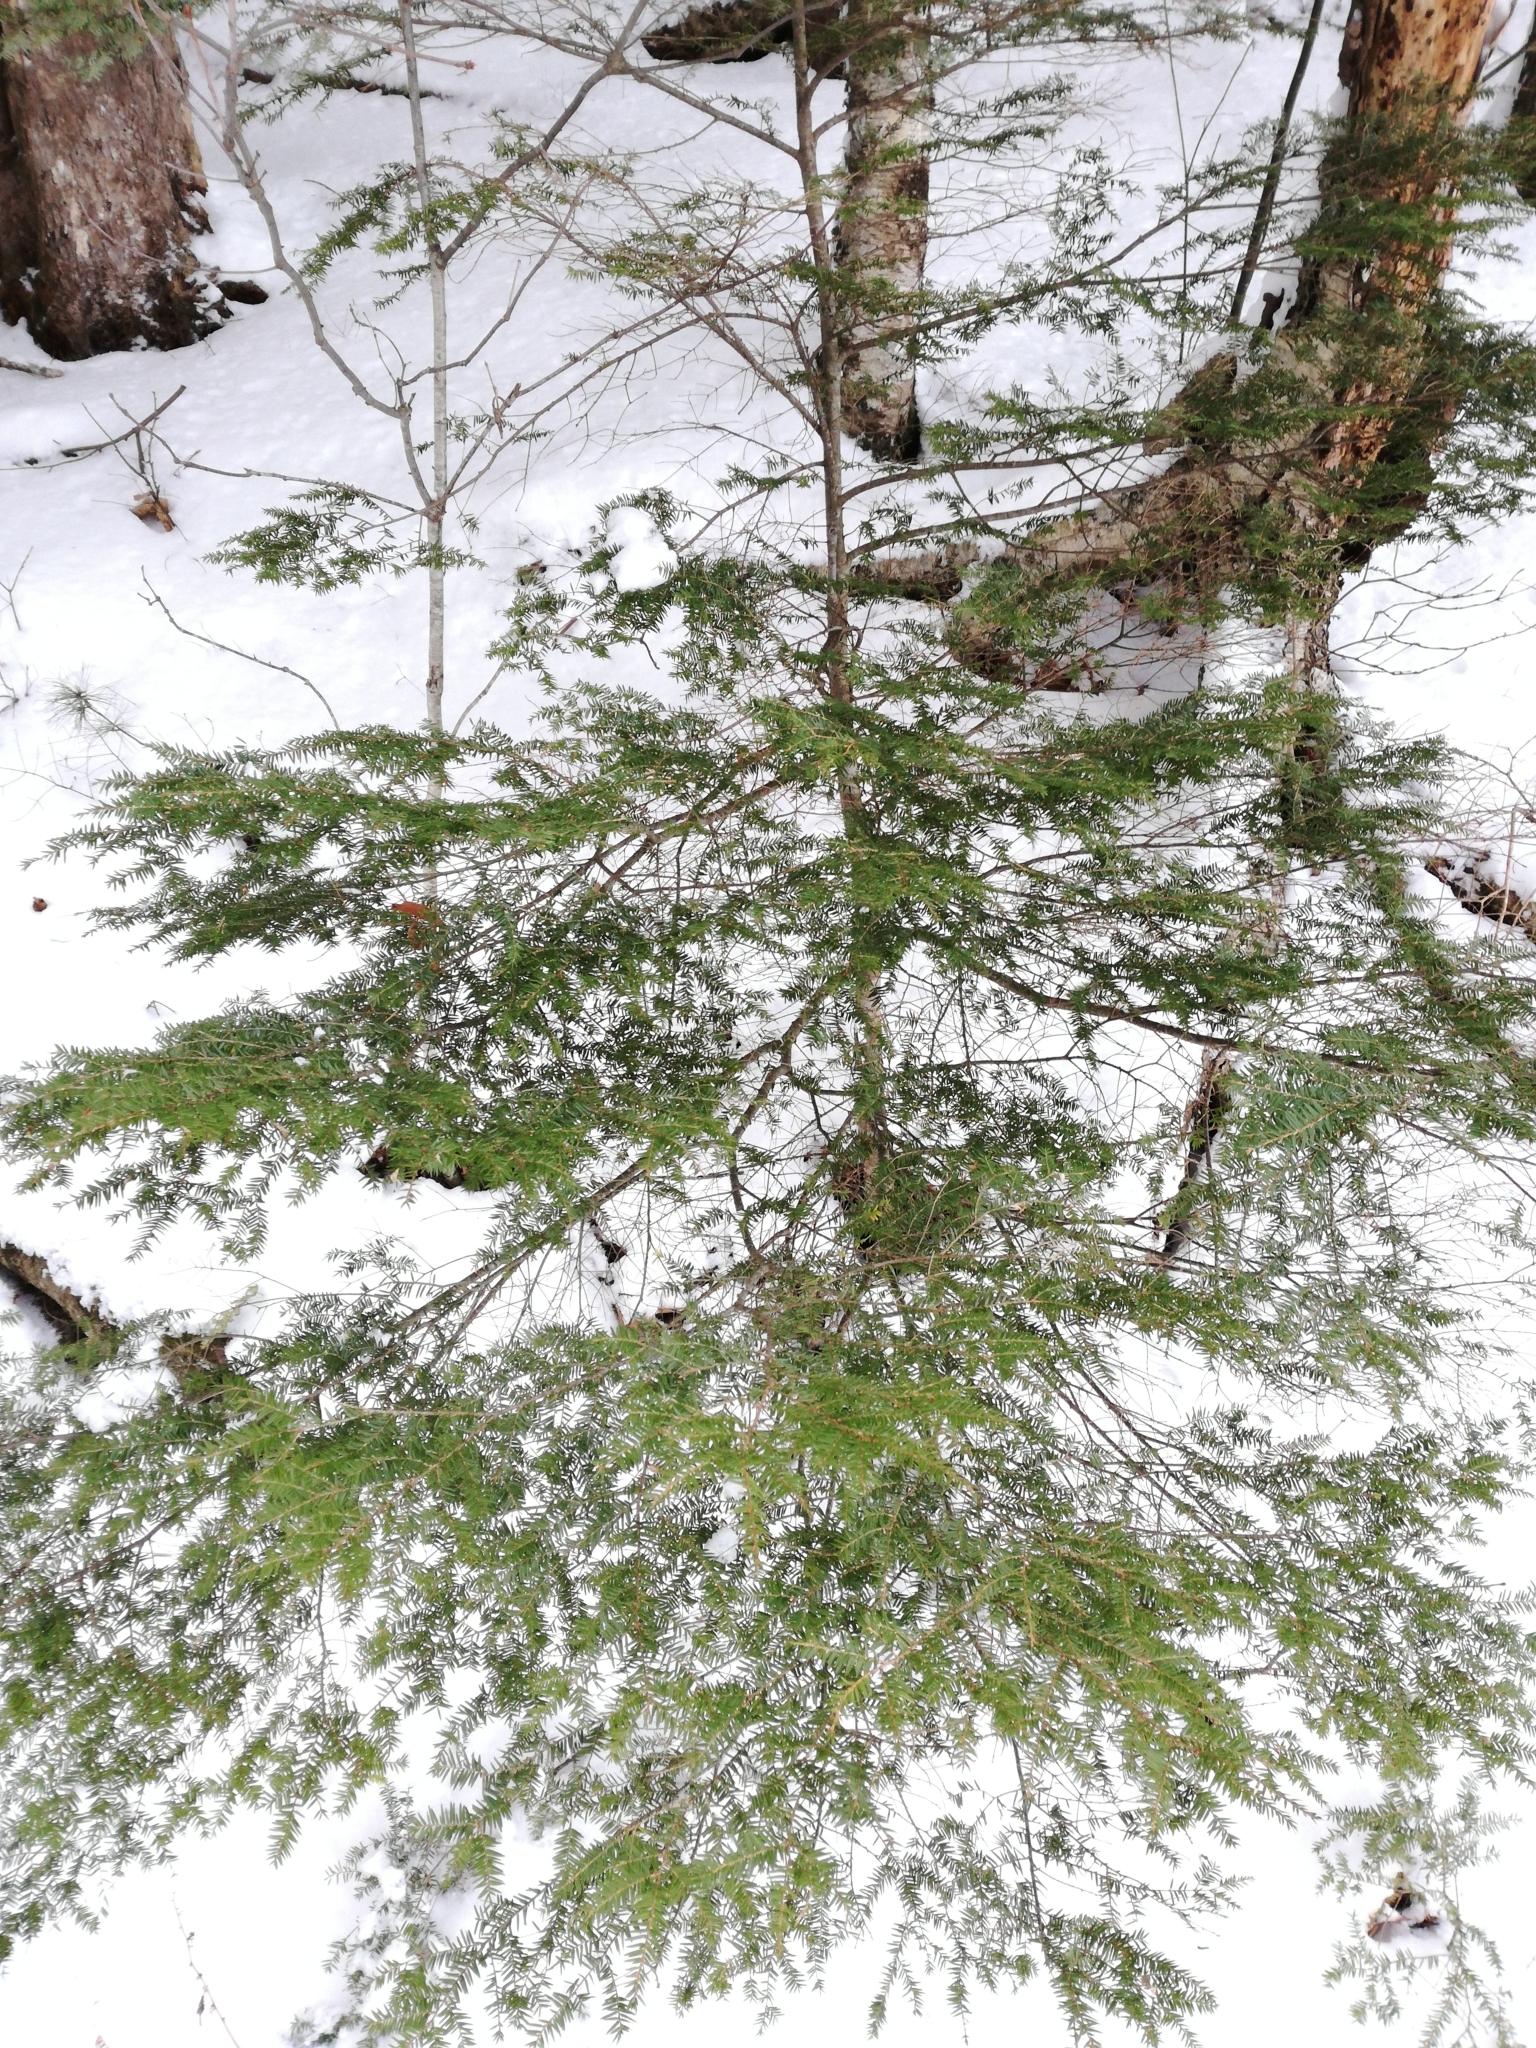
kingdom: Plantae
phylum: Tracheophyta
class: Pinopsida
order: Pinales
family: Pinaceae
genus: Tsuga
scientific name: Tsuga canadensis
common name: Eastern hemlock
